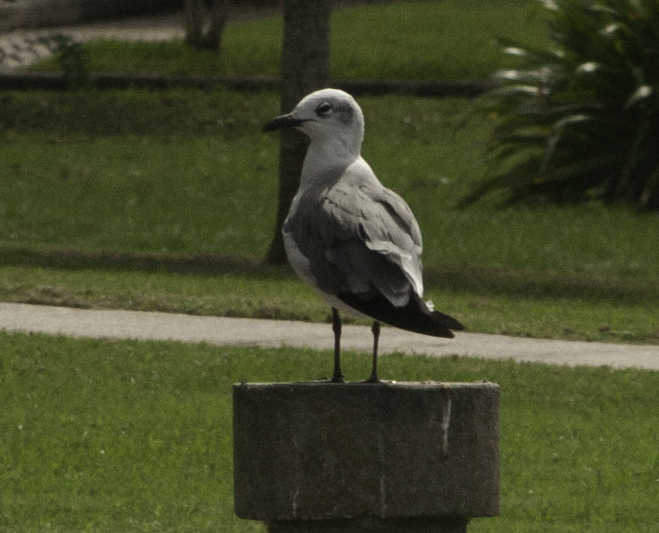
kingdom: Animalia
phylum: Chordata
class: Aves
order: Charadriiformes
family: Laridae
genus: Leucophaeus
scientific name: Leucophaeus atricilla
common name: Laughing gull
